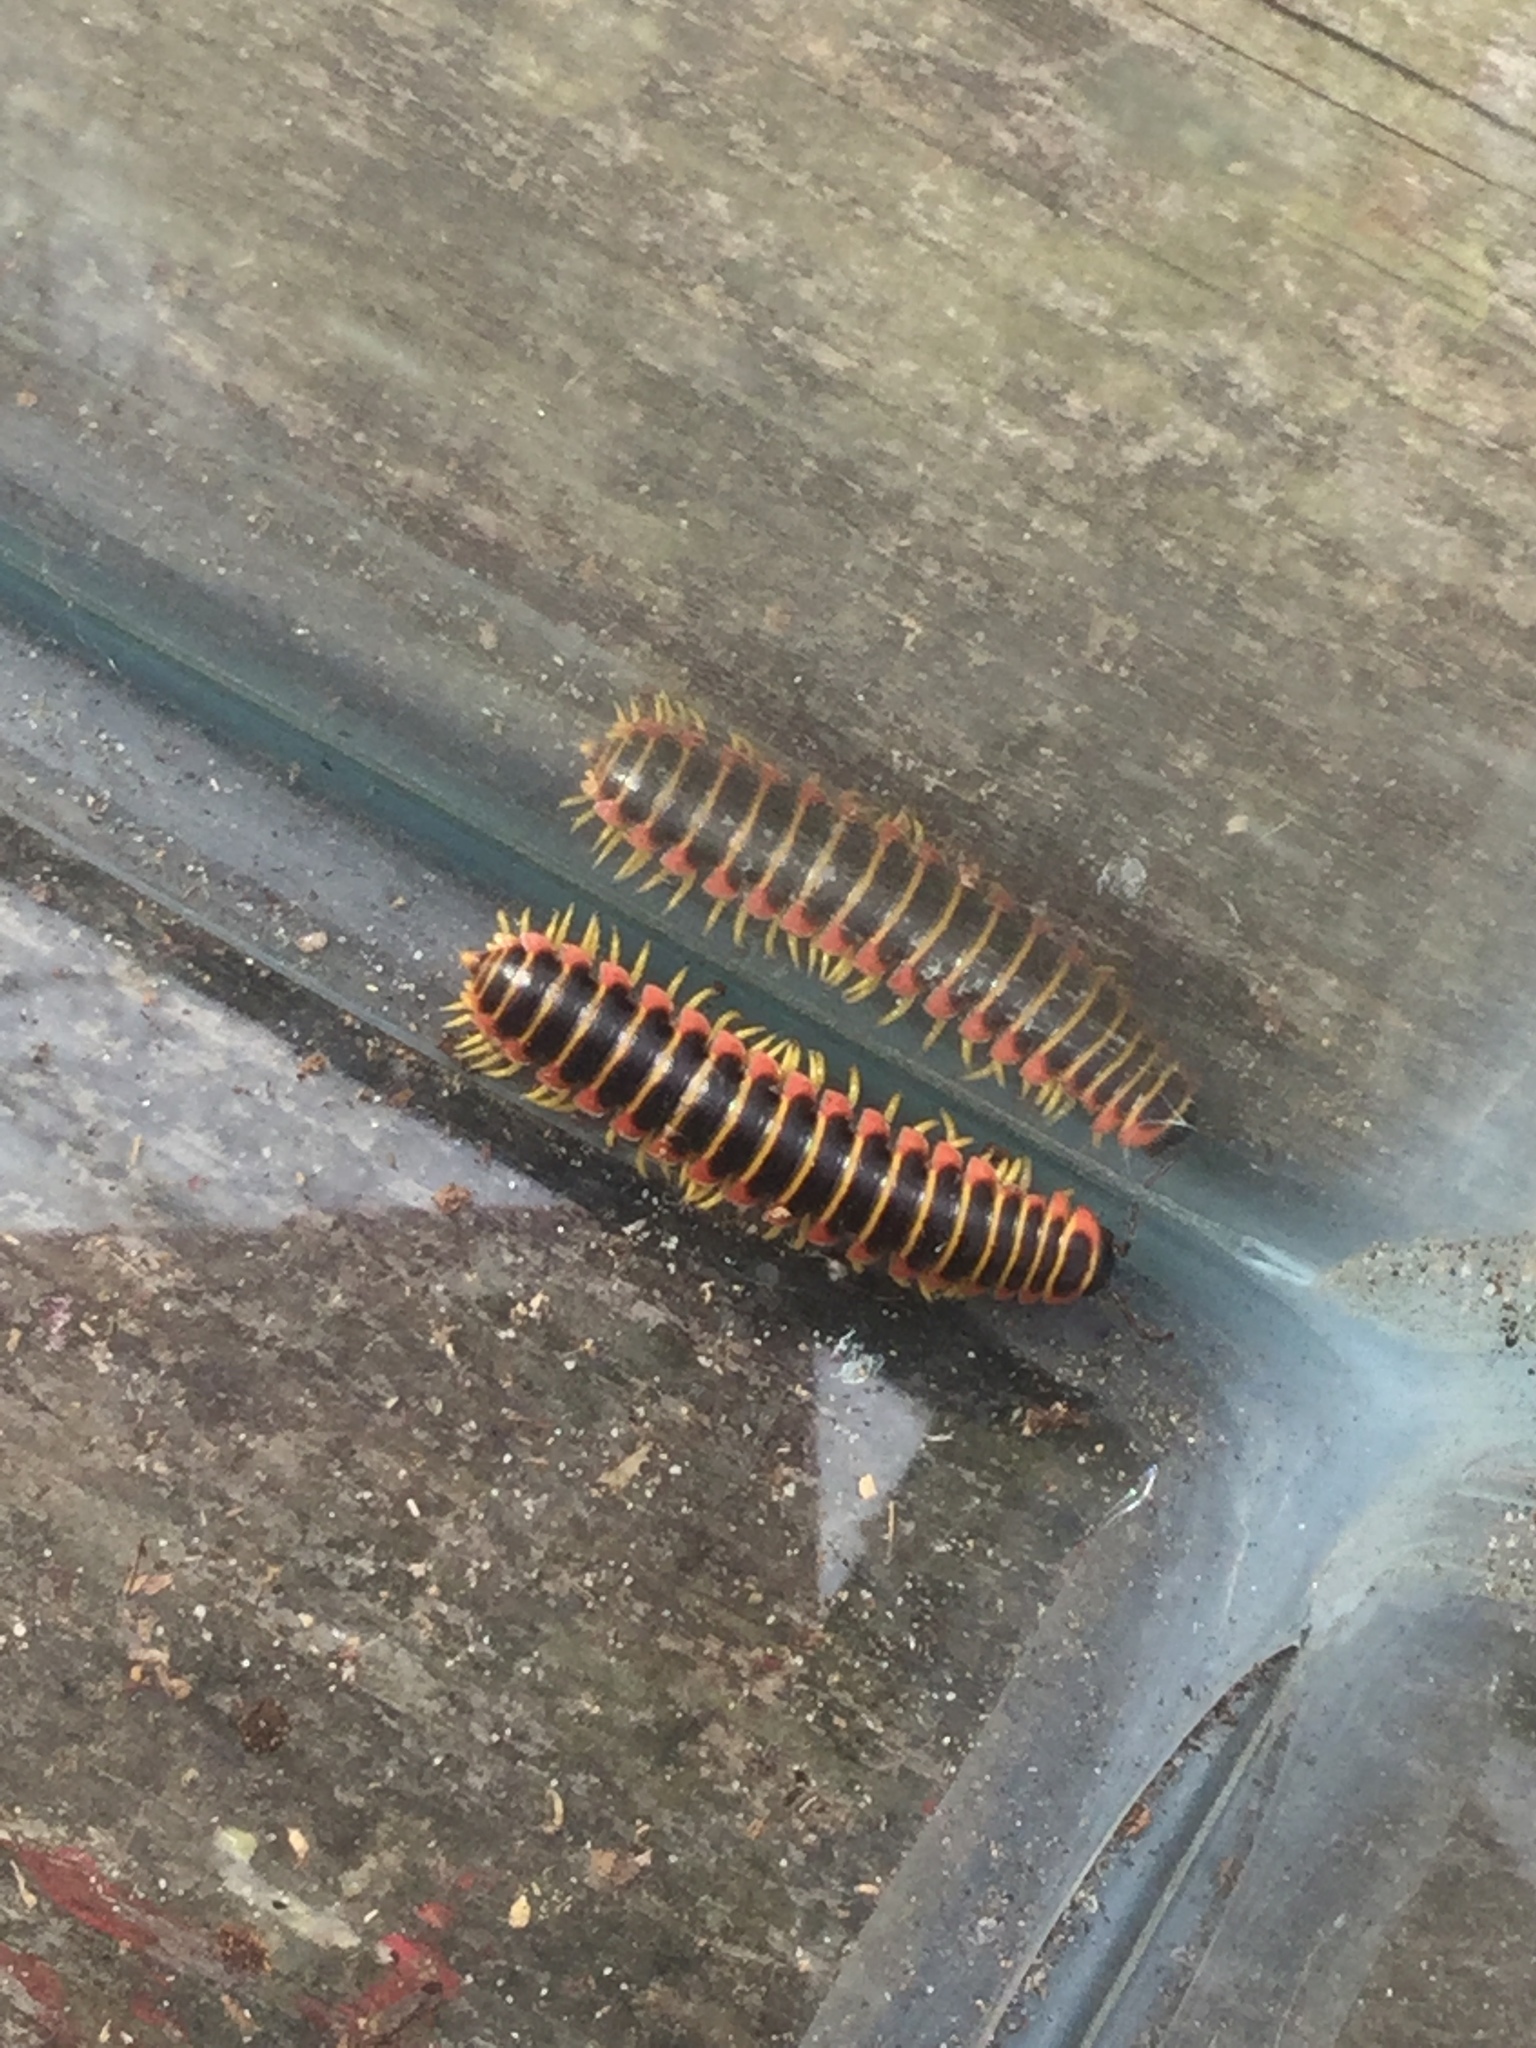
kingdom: Animalia
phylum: Arthropoda
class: Diplopoda
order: Polydesmida
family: Xystodesmidae
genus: Apheloria
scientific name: Apheloria virginiensis
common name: Black-and-gold flat millipede
